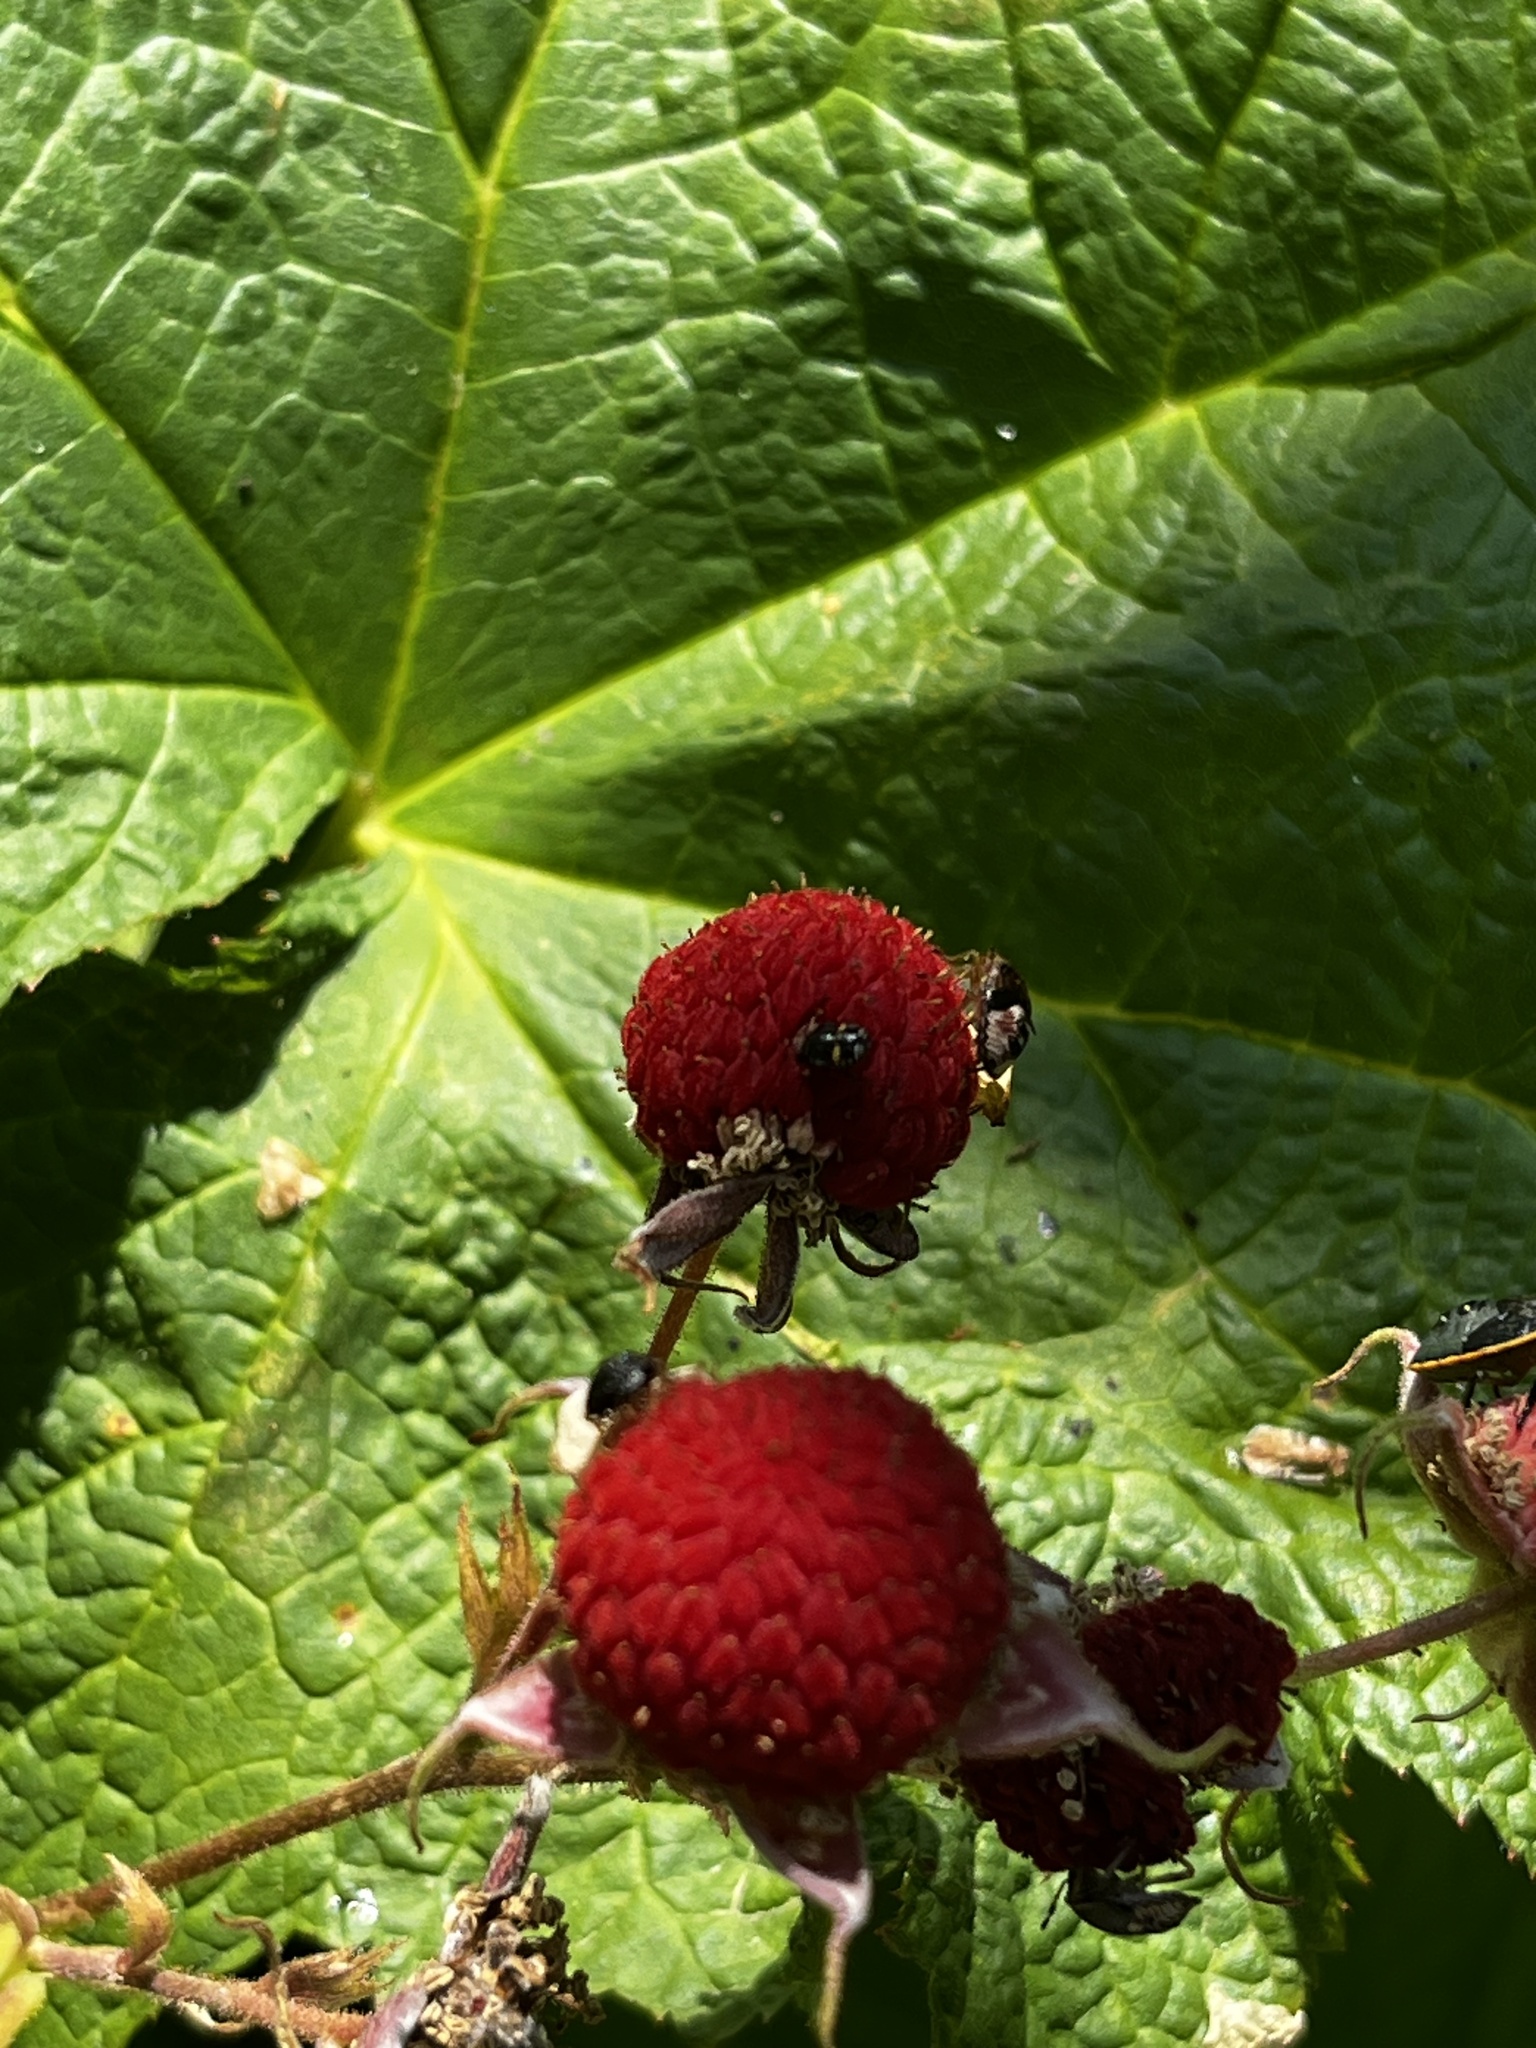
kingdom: Plantae
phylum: Tracheophyta
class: Magnoliopsida
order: Rosales
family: Rosaceae
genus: Rubus
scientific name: Rubus parviflorus
